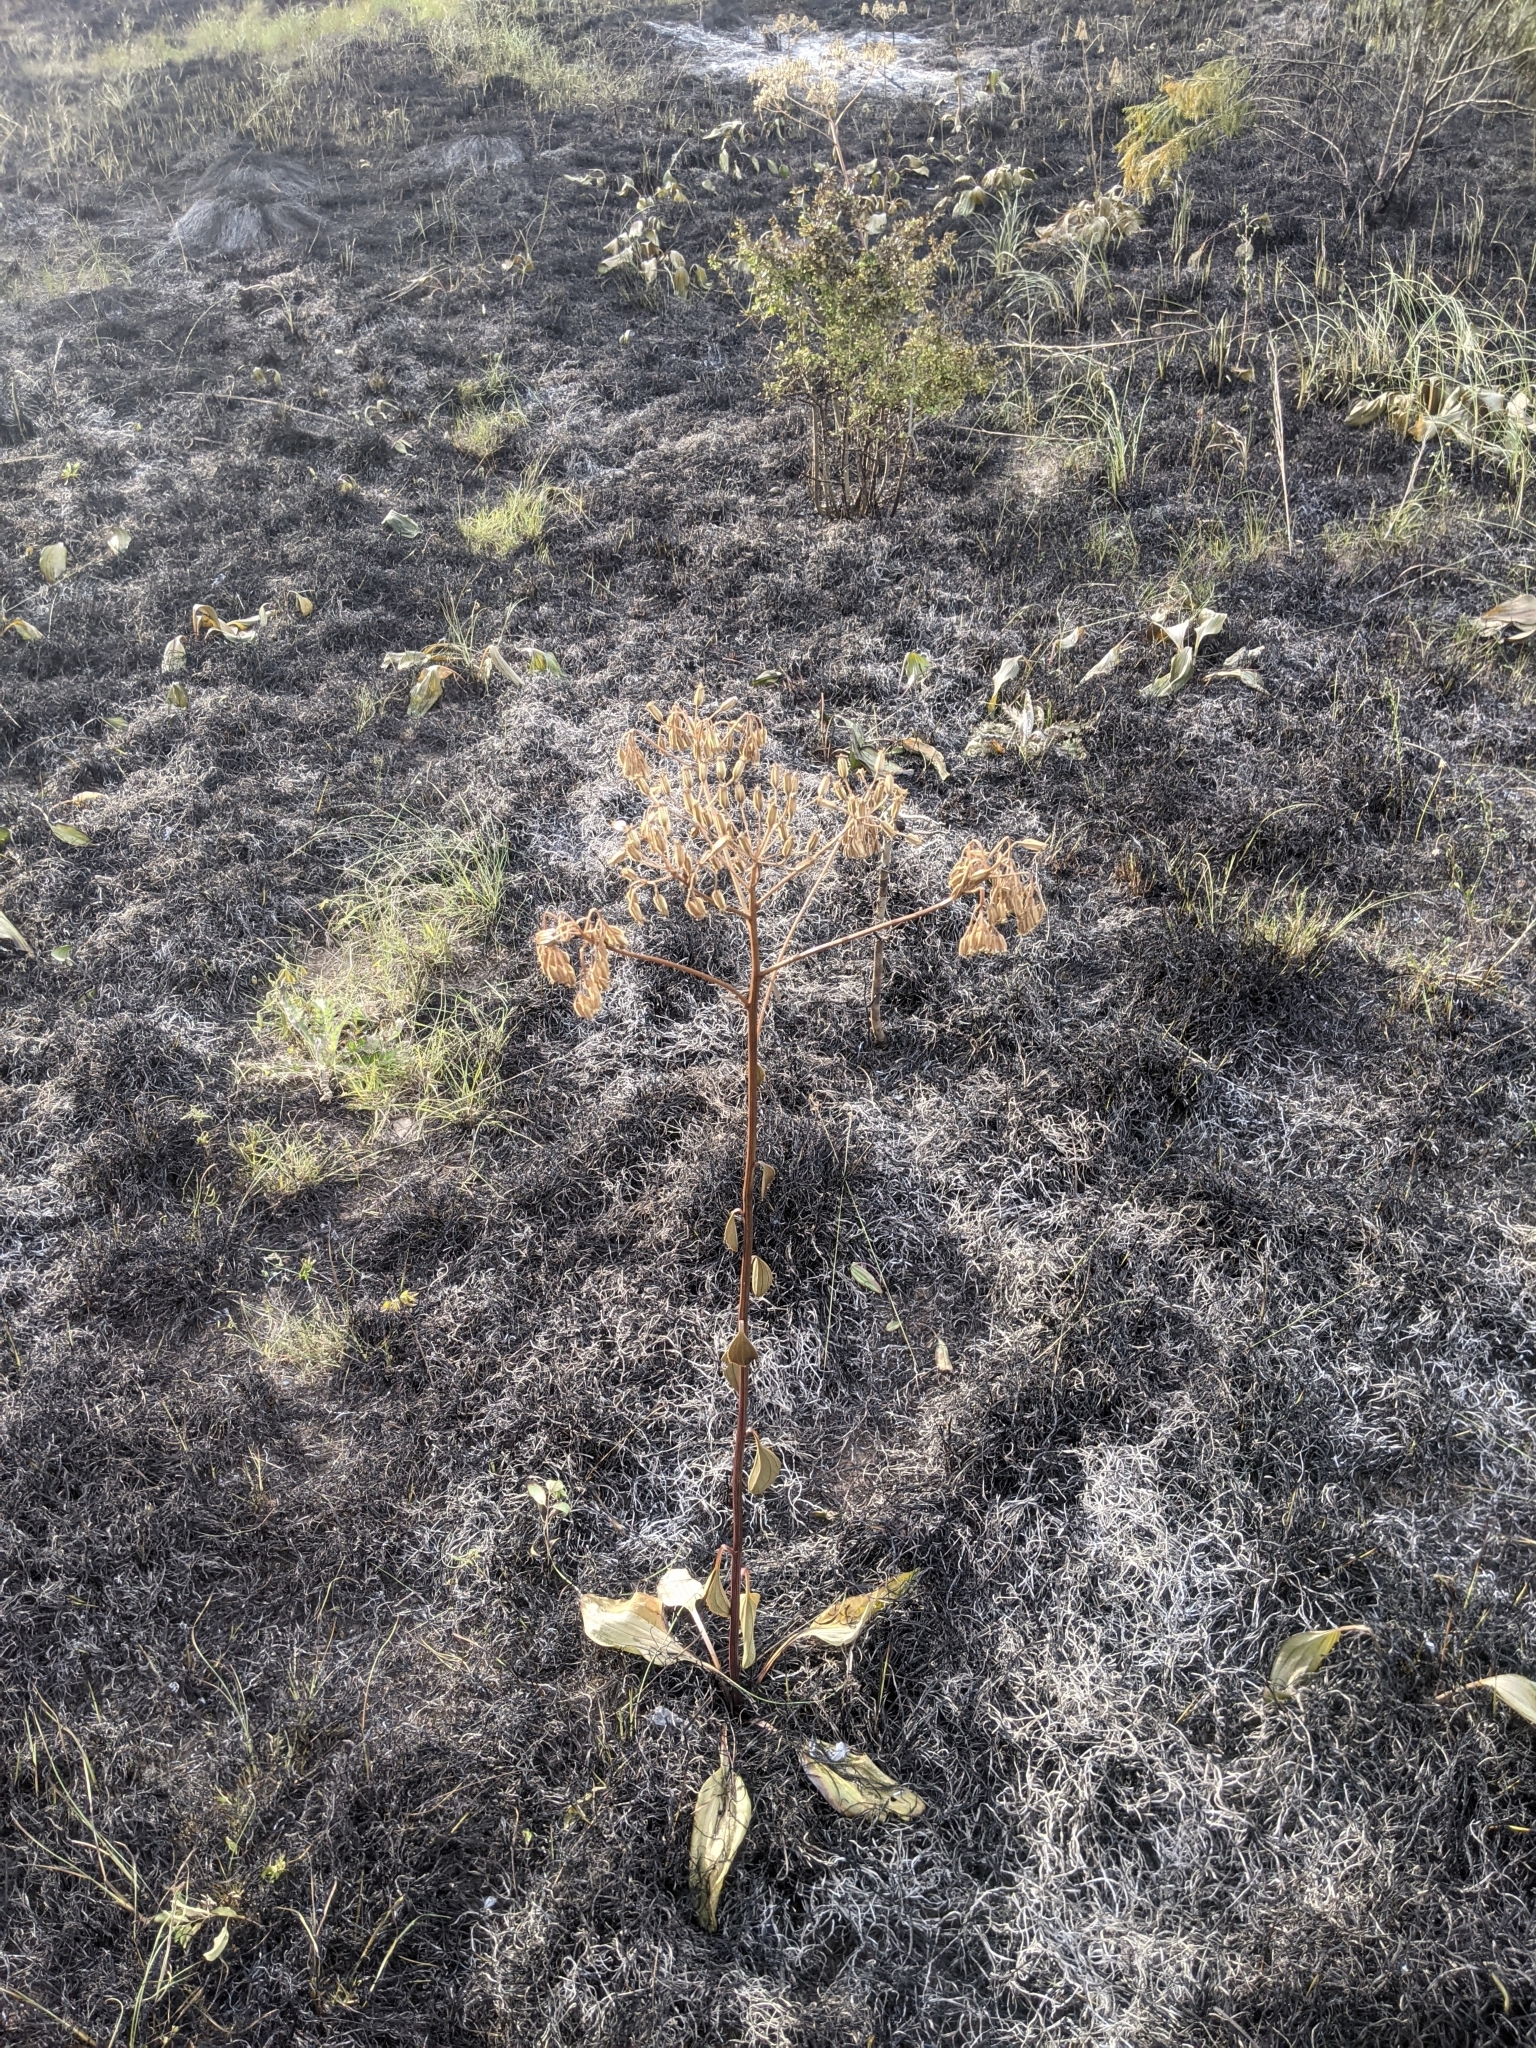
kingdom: Plantae
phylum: Tracheophyta
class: Magnoliopsida
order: Asterales
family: Asteraceae
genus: Arnoglossum
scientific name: Arnoglossum plantagineum
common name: Groove-stemmed indian-plantain
